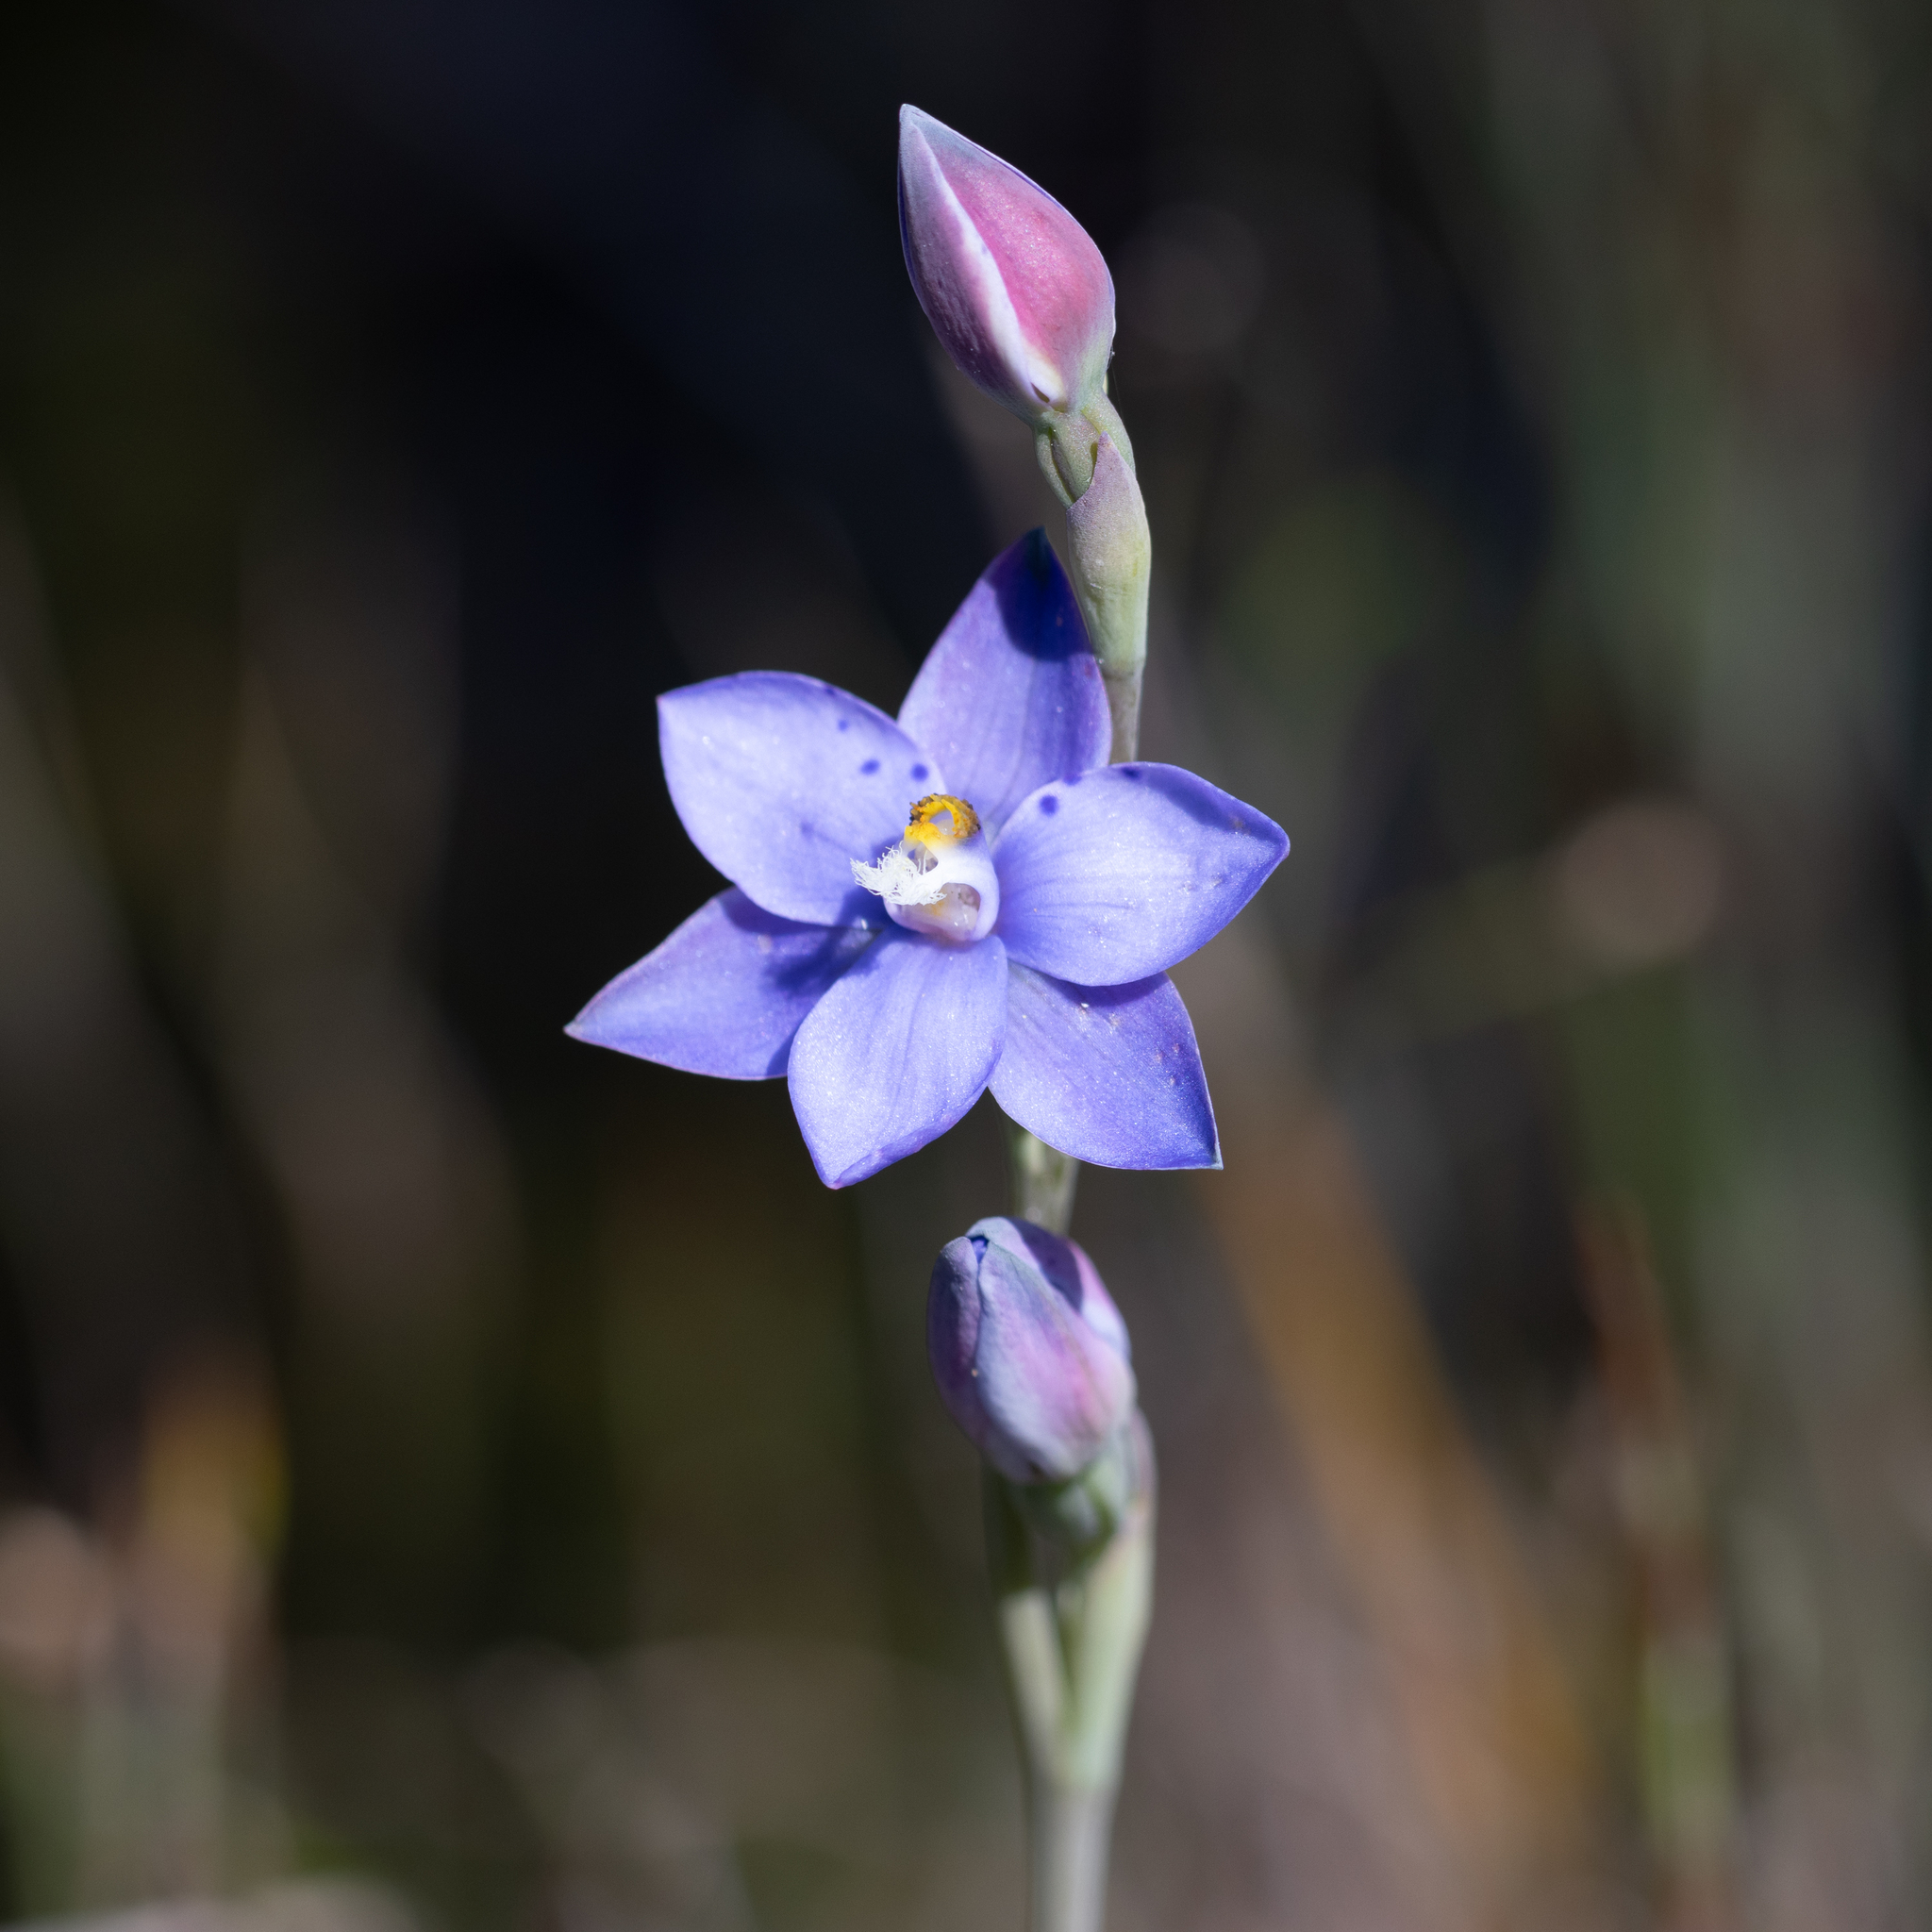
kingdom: Plantae
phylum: Tracheophyta
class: Liliopsida
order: Asparagales
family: Orchidaceae
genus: Thelymitra
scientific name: Thelymitra ixioides
